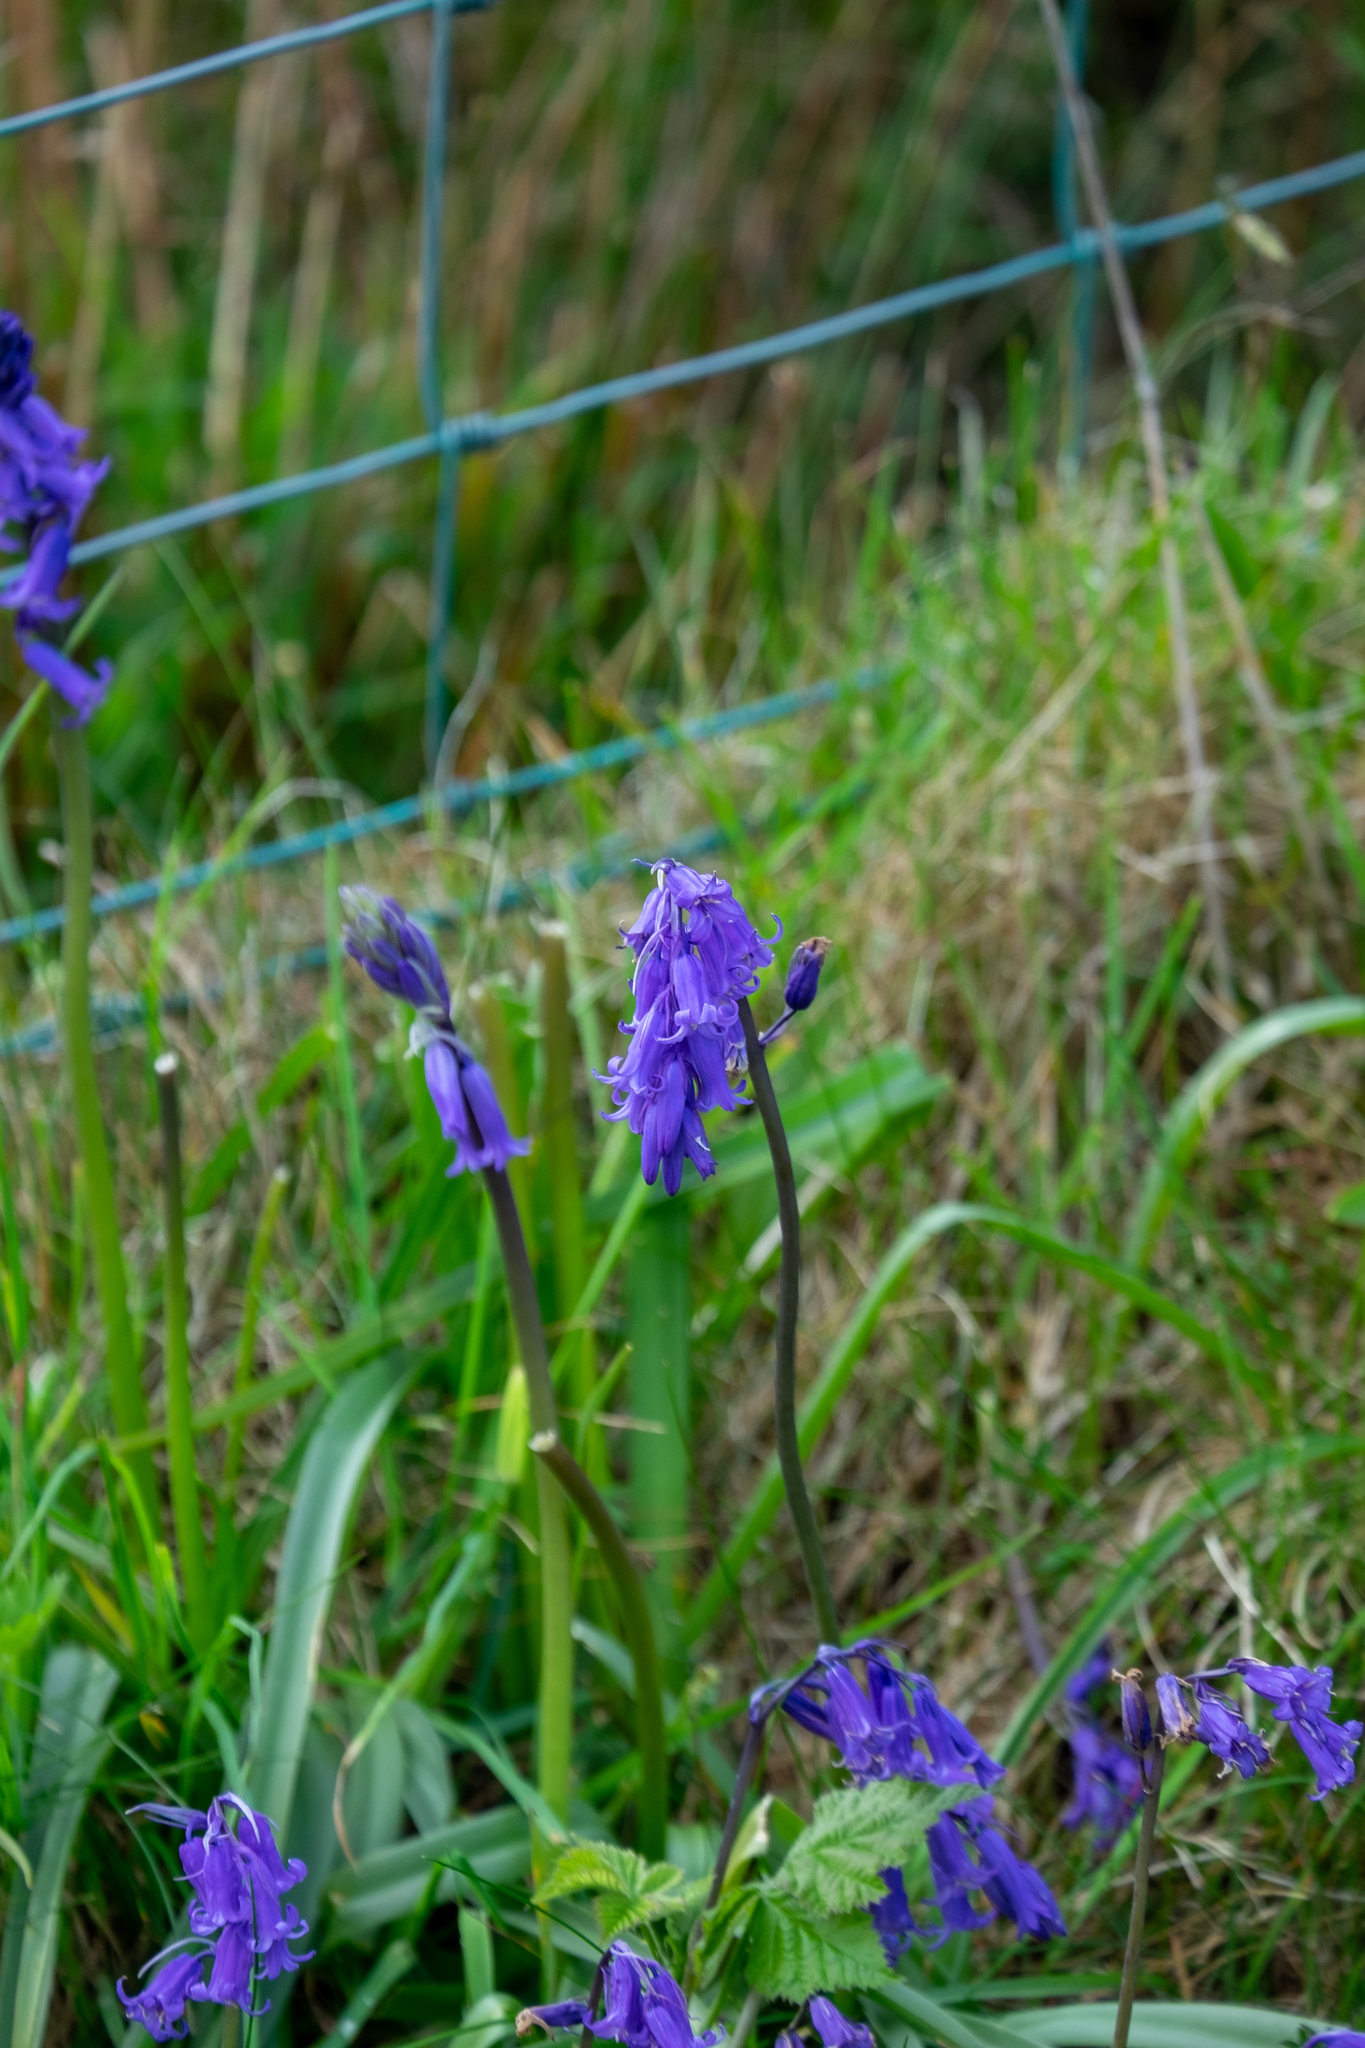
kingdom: Plantae
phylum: Tracheophyta
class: Liliopsida
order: Asparagales
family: Asparagaceae
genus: Hyacinthoides
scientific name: Hyacinthoides non-scripta
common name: Bluebell
